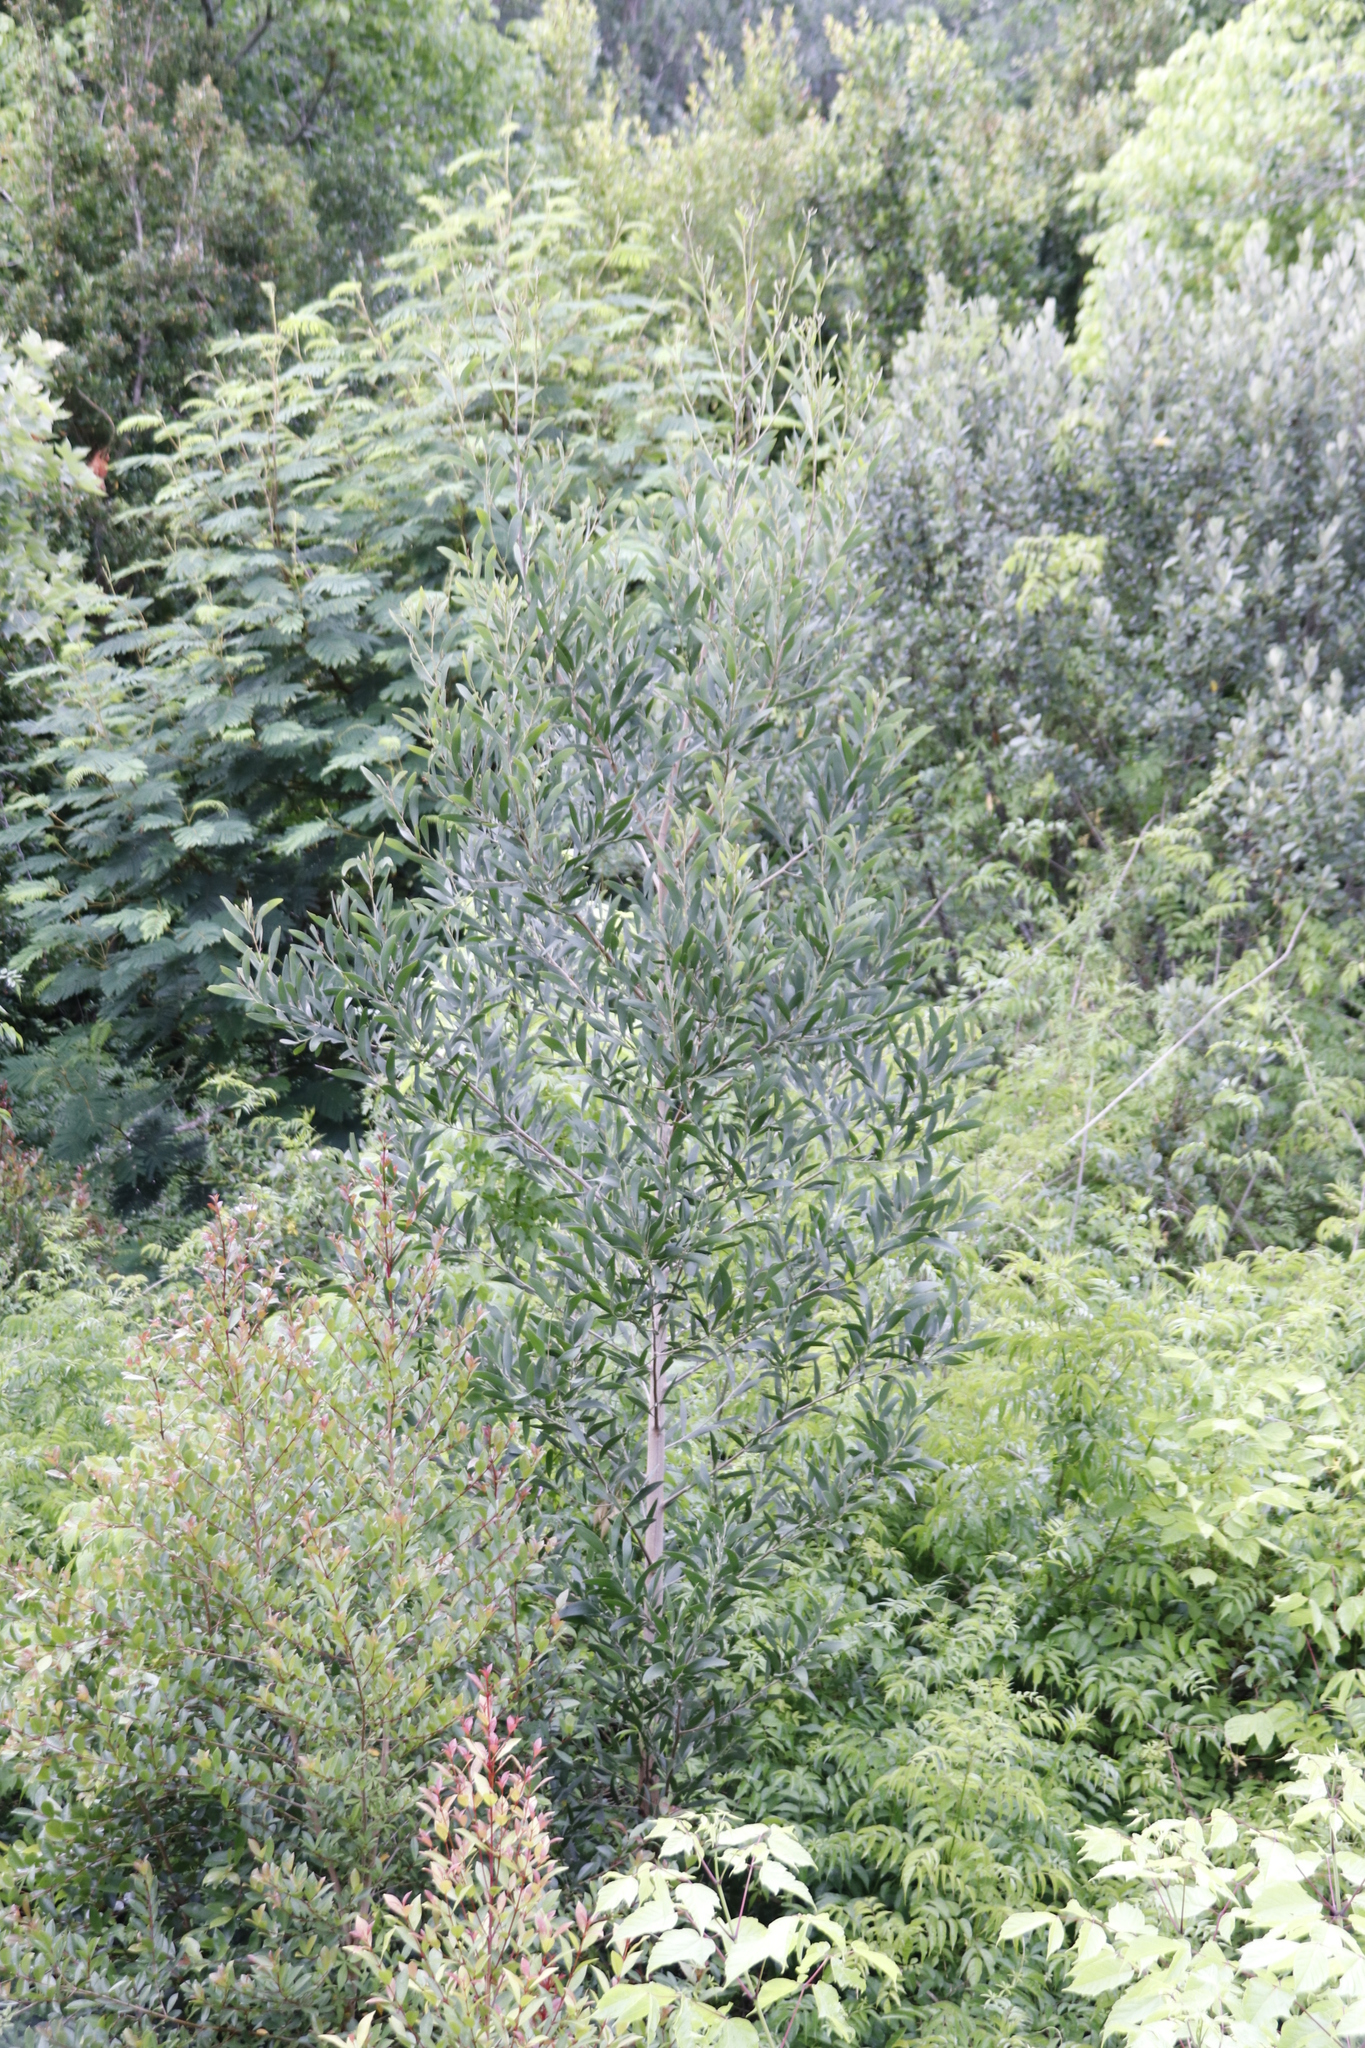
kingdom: Plantae
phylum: Tracheophyta
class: Magnoliopsida
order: Fabales
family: Fabaceae
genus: Acacia
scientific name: Acacia melanoxylon
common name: Blackwood
